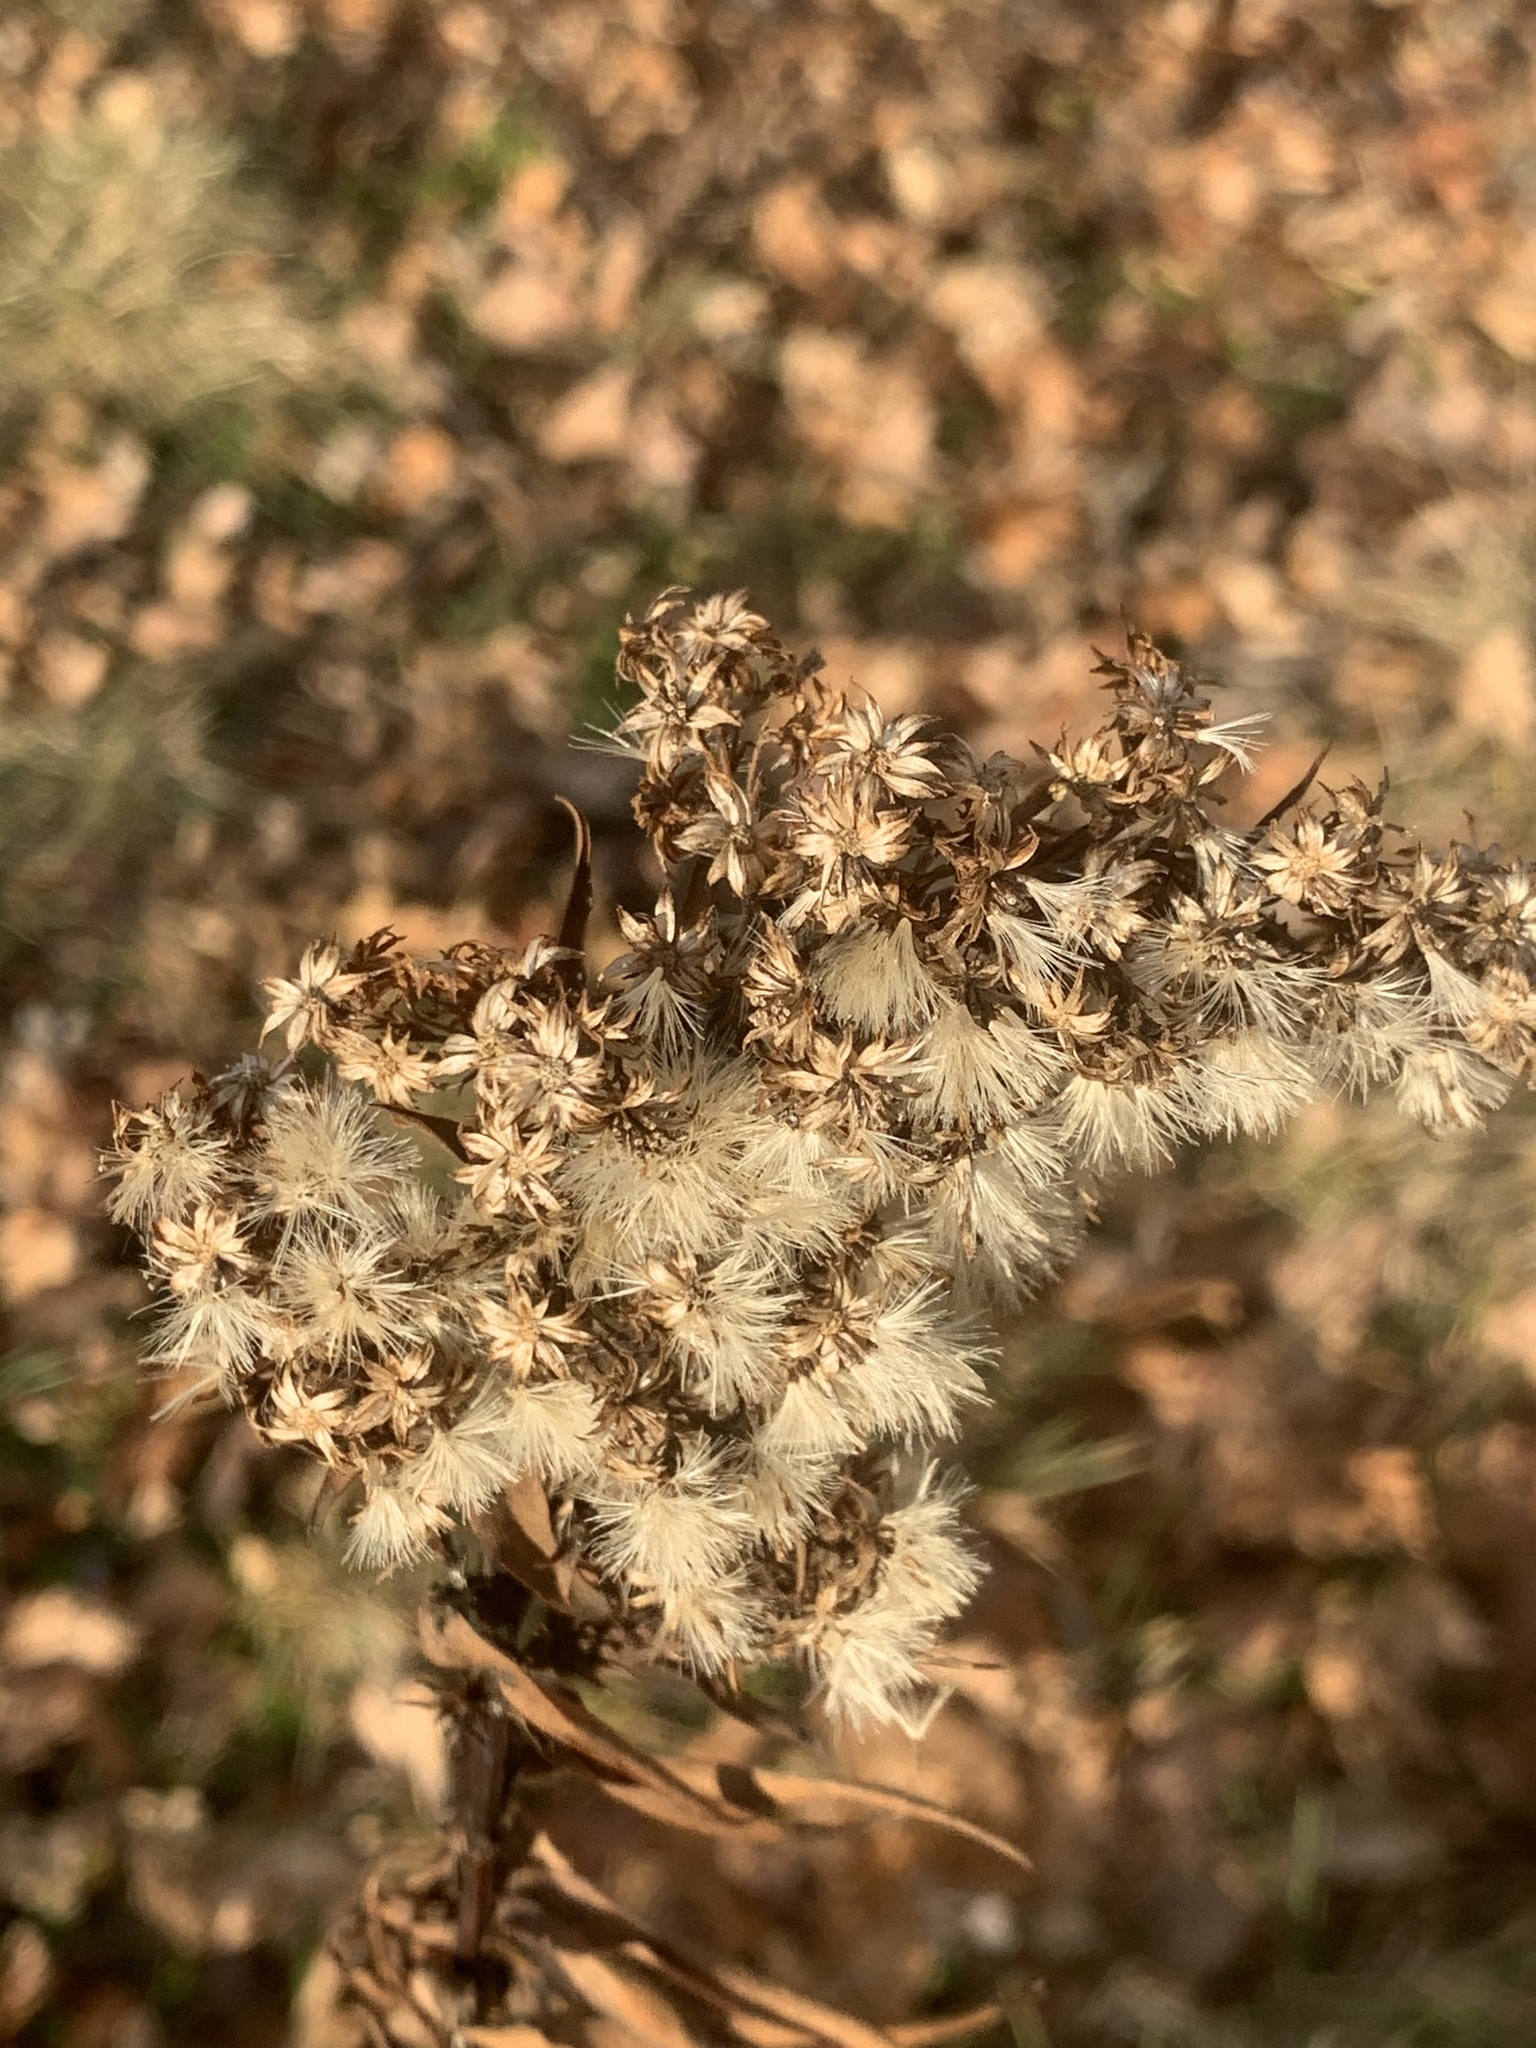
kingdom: Plantae
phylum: Tracheophyta
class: Magnoliopsida
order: Asterales
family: Asteraceae
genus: Solidago
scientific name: Solidago sempervirens
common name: Salt-marsh goldenrod
